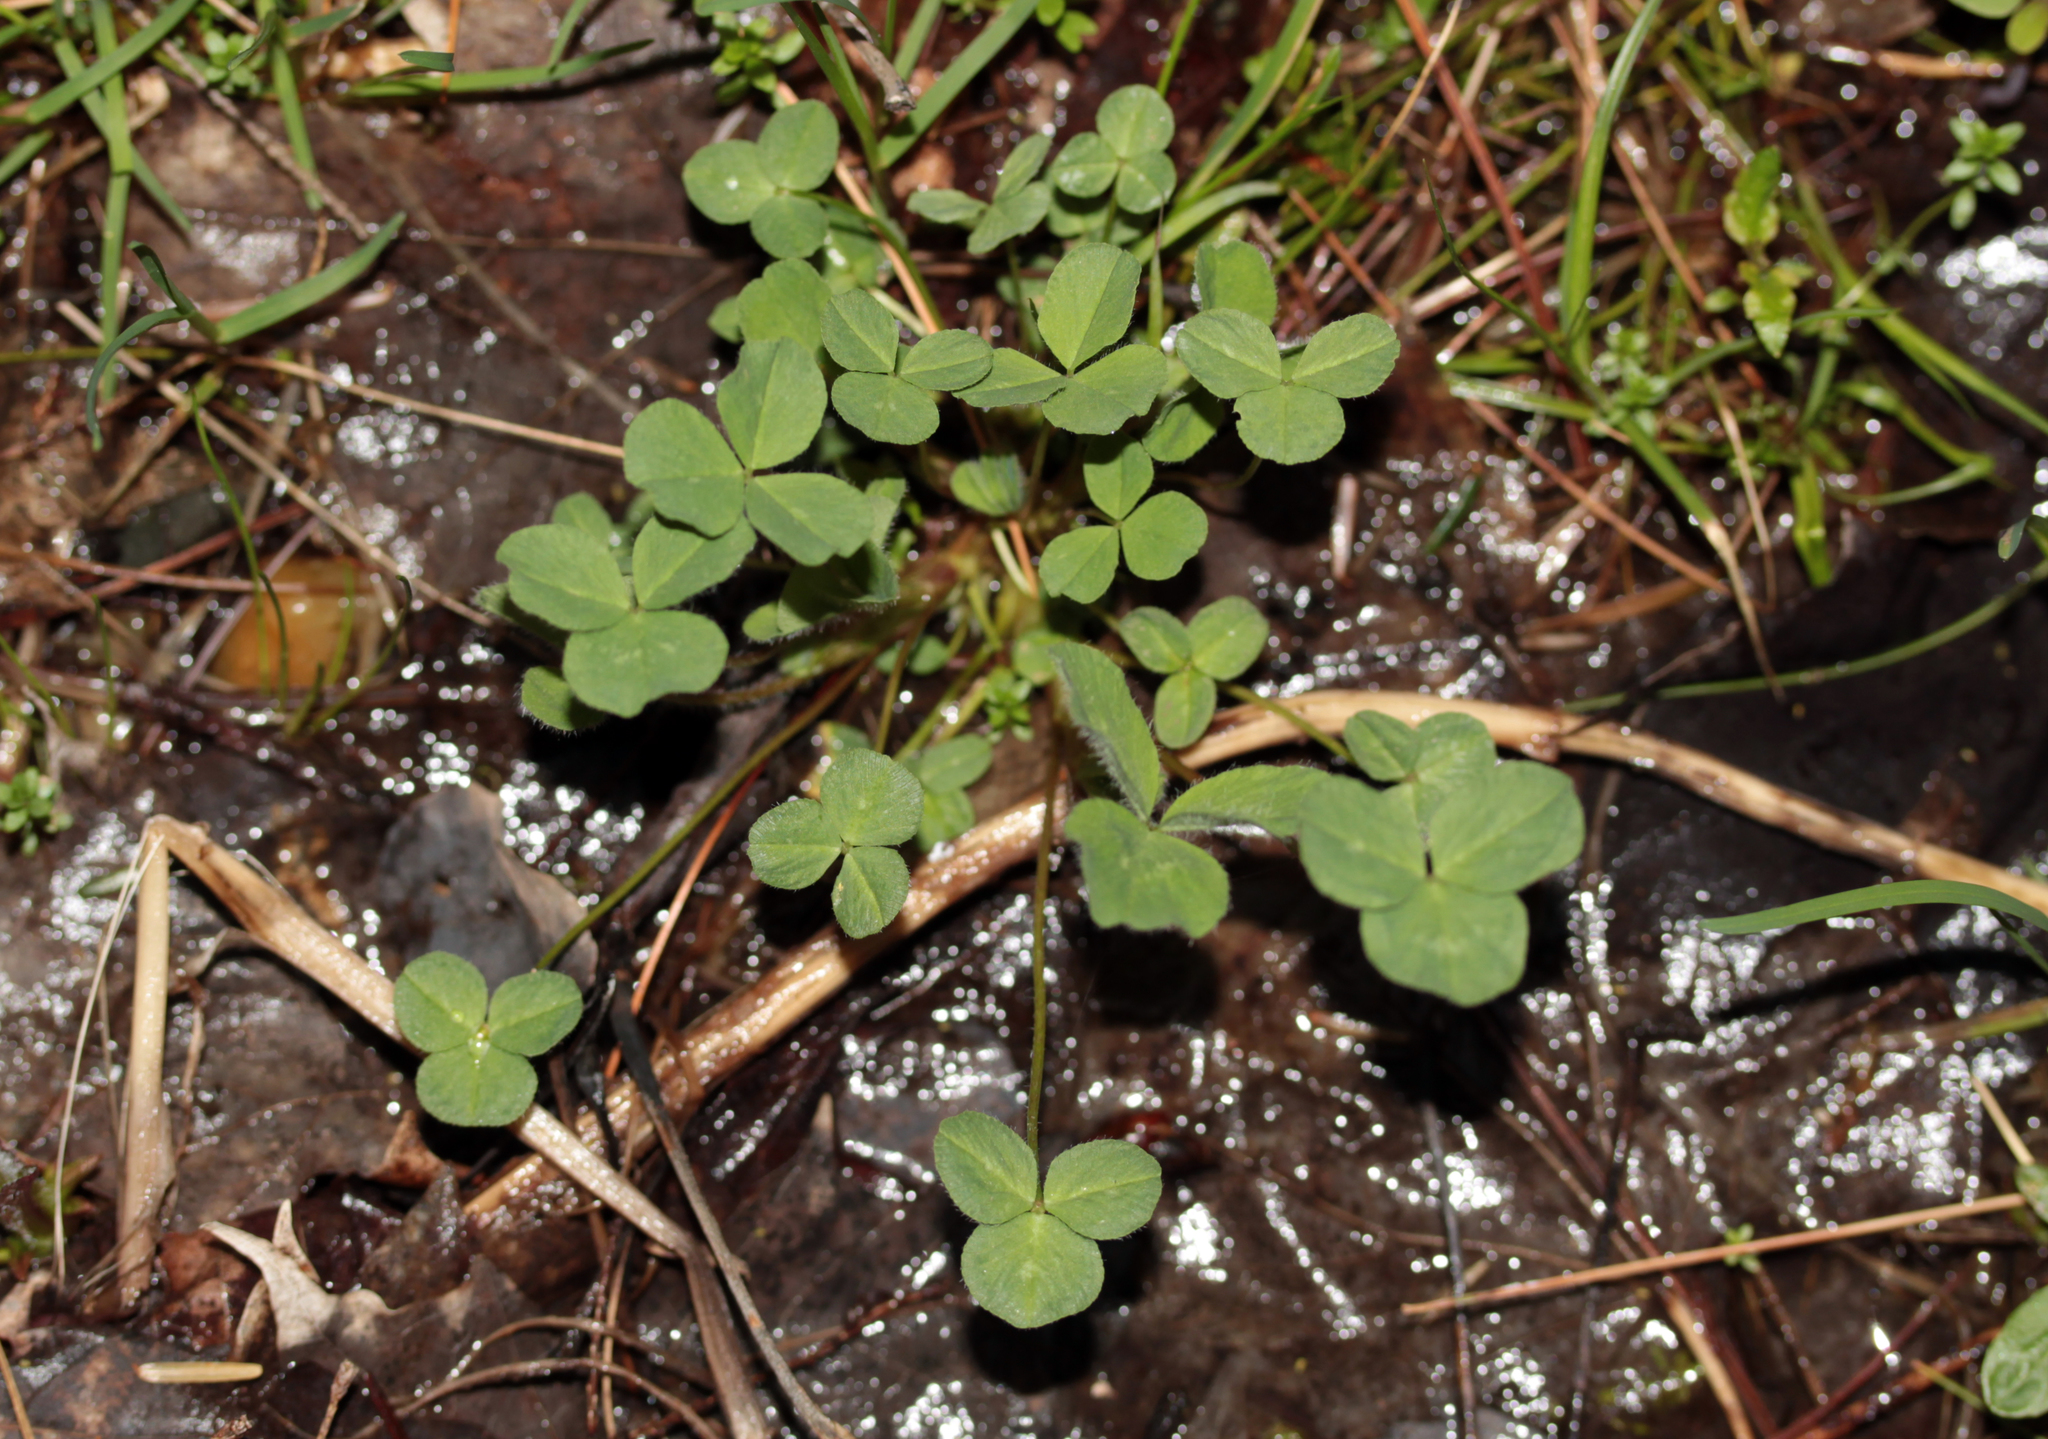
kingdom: Plantae
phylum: Tracheophyta
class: Magnoliopsida
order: Fabales
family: Fabaceae
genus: Trifolium
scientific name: Trifolium pratense
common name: Red clover
